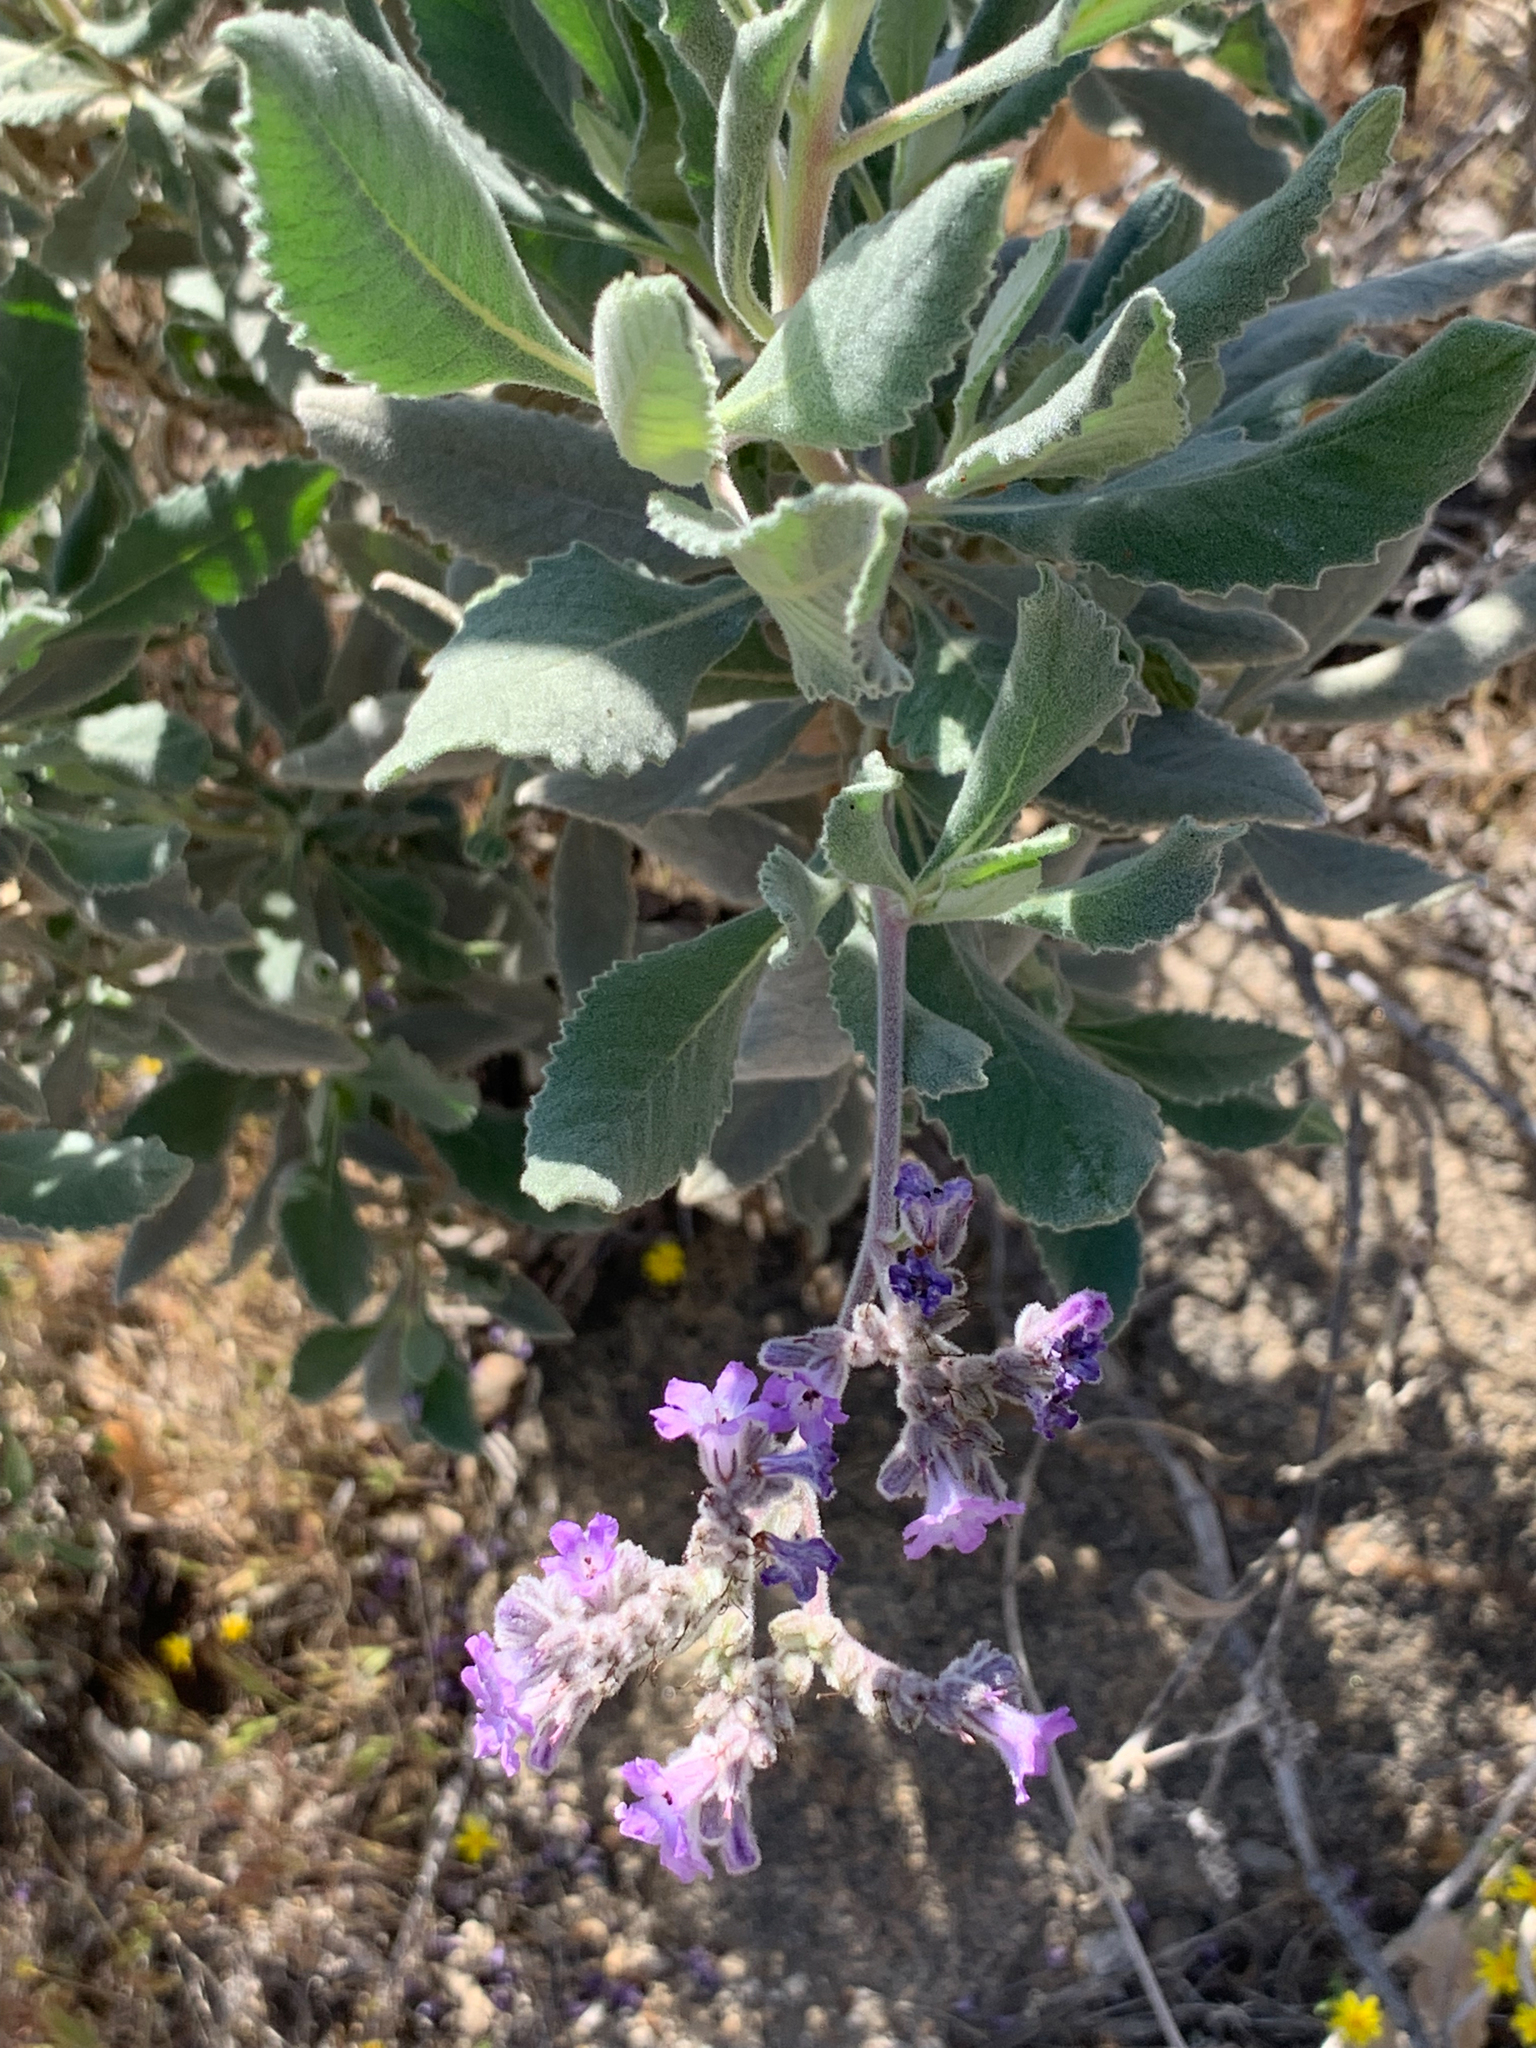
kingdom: Plantae
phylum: Tracheophyta
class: Magnoliopsida
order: Boraginales
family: Namaceae
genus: Eriodictyon
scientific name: Eriodictyon crassifolium
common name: Thick-leaf yerba-santa
